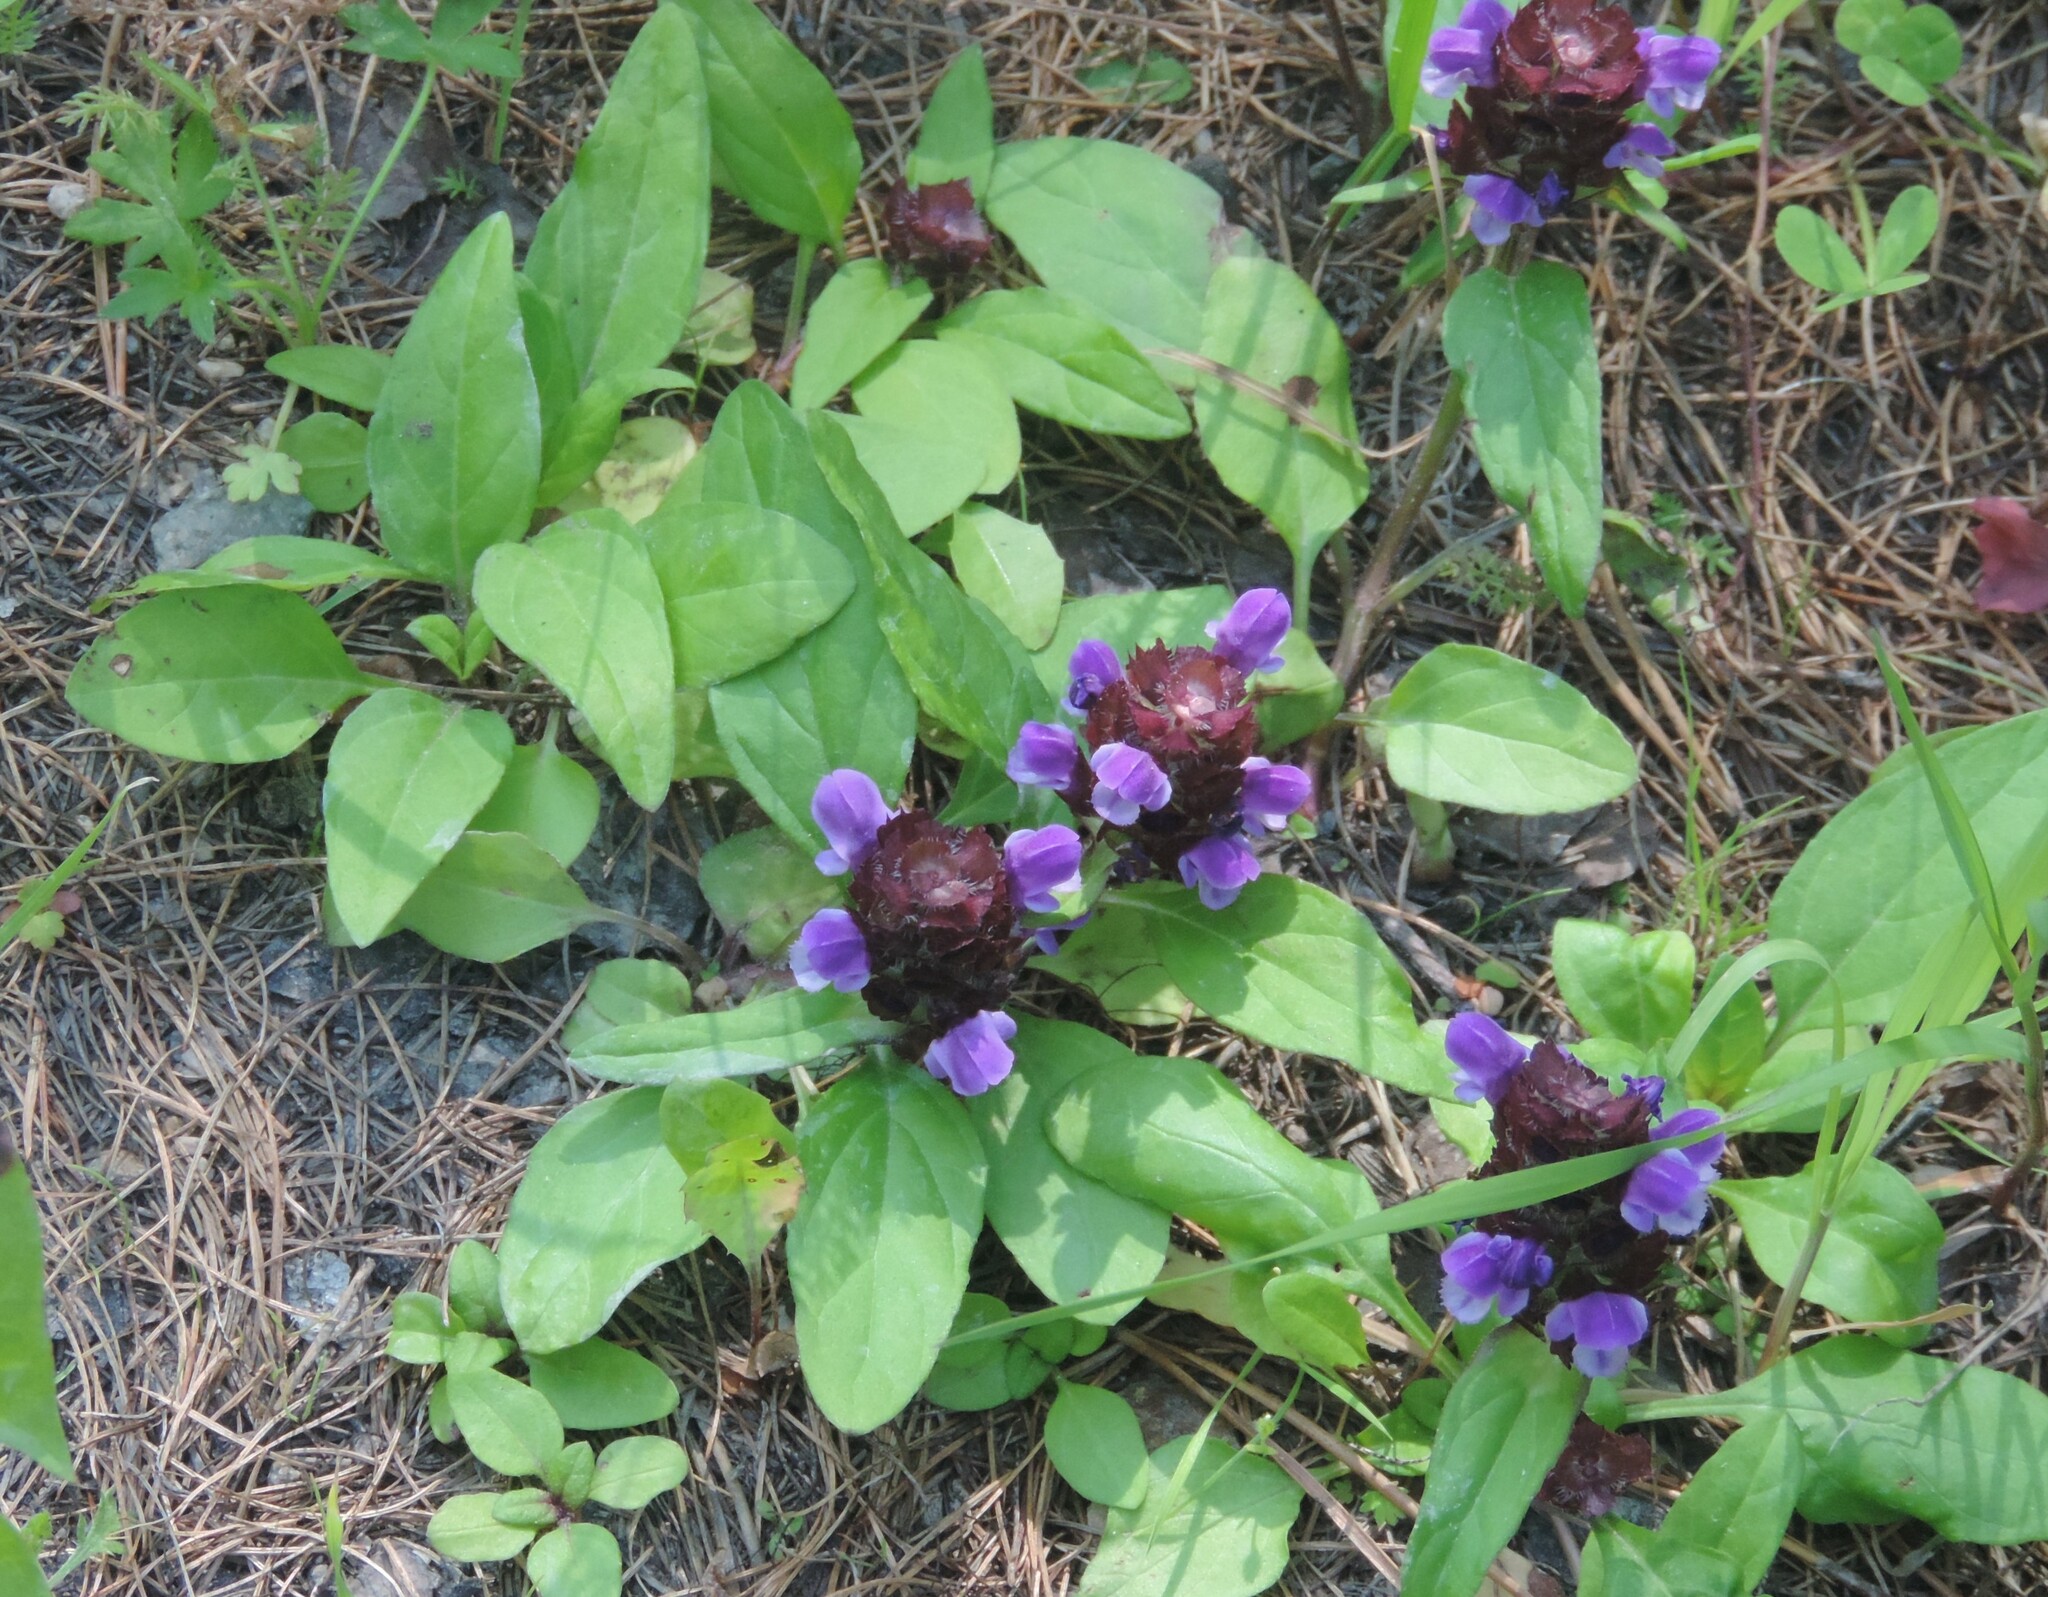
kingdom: Plantae
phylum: Tracheophyta
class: Magnoliopsida
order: Lamiales
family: Lamiaceae
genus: Prunella
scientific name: Prunella vulgaris
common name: Heal-all
